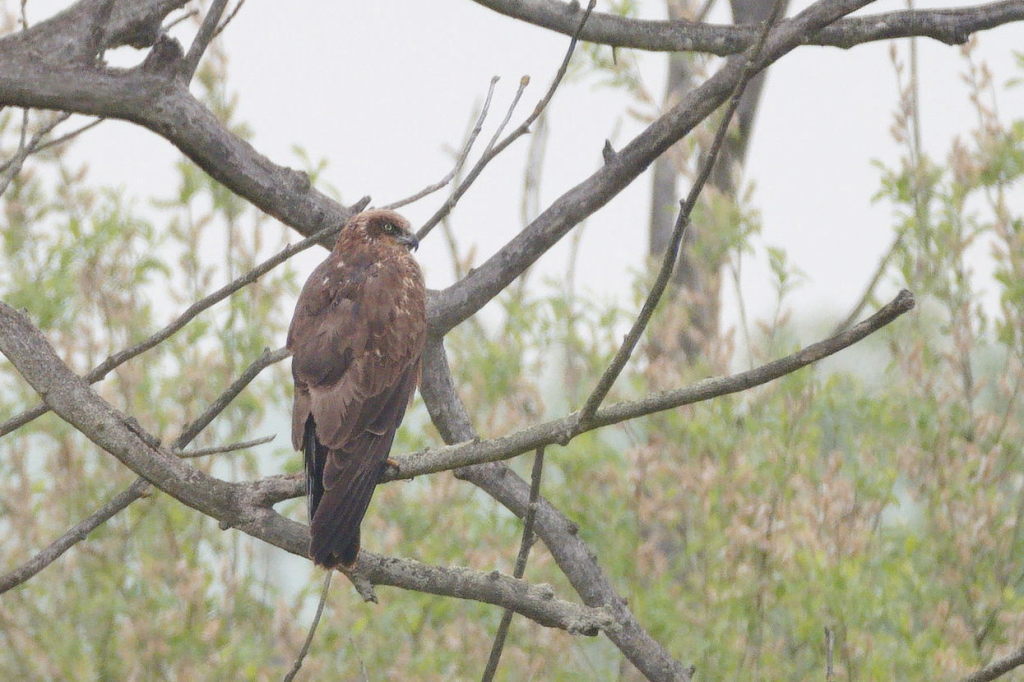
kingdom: Animalia
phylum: Chordata
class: Aves
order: Accipitriformes
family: Accipitridae
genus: Circus
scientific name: Circus aeruginosus
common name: Western marsh harrier
